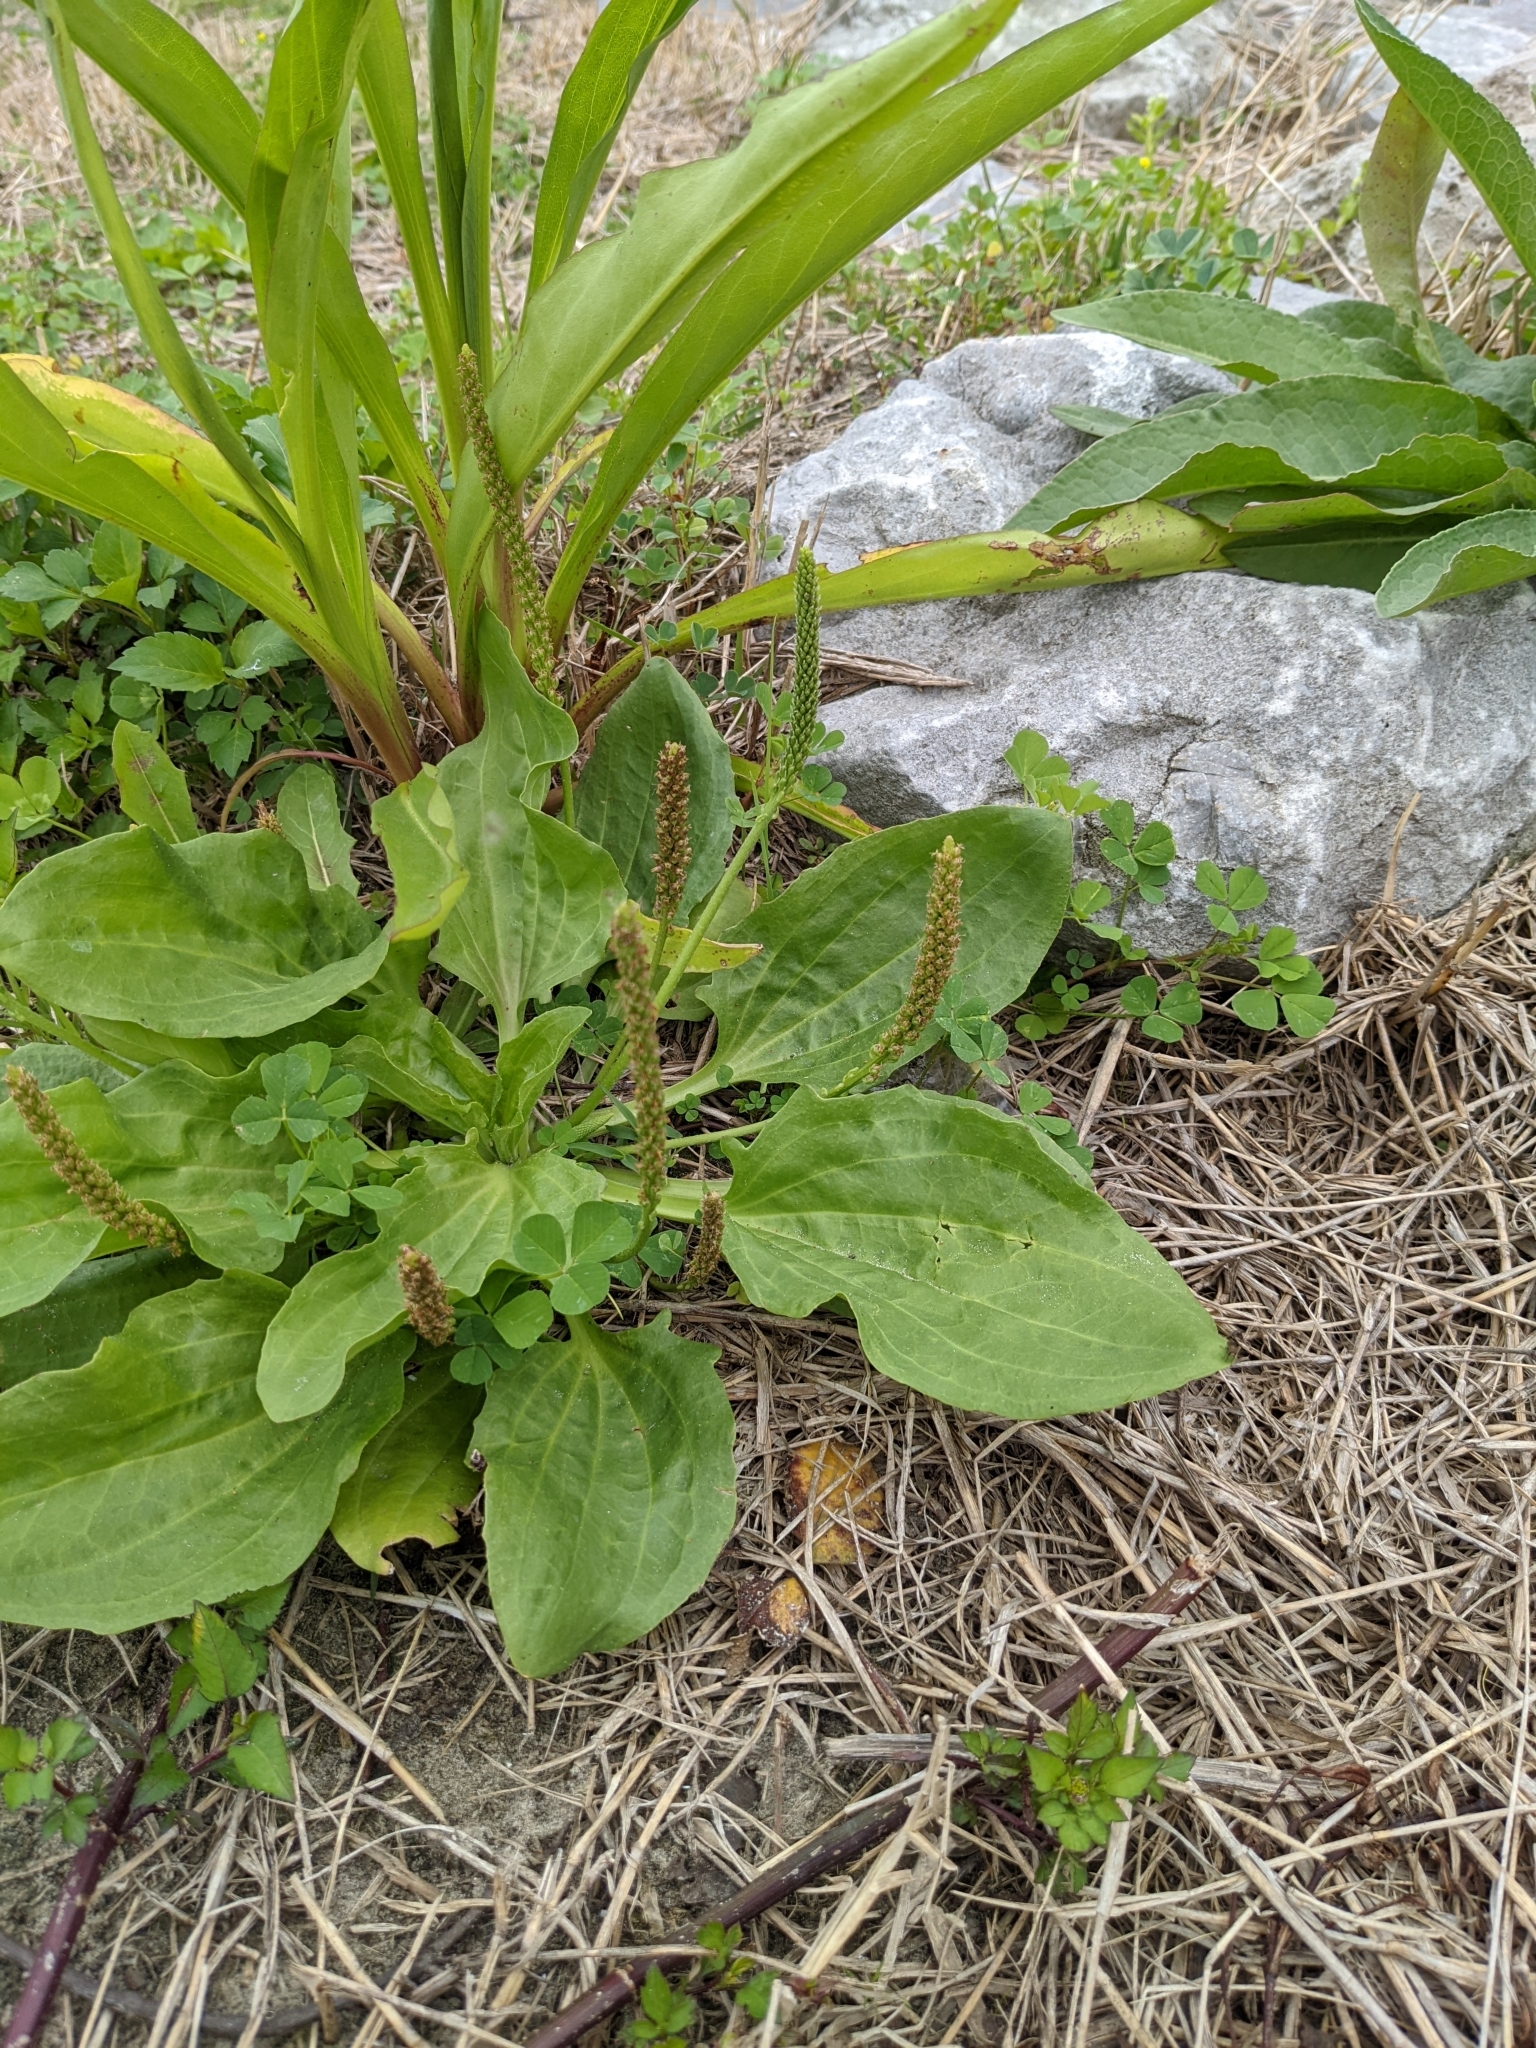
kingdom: Plantae
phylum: Tracheophyta
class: Magnoliopsida
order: Lamiales
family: Plantaginaceae
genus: Plantago
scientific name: Plantago major
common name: Common plantain
